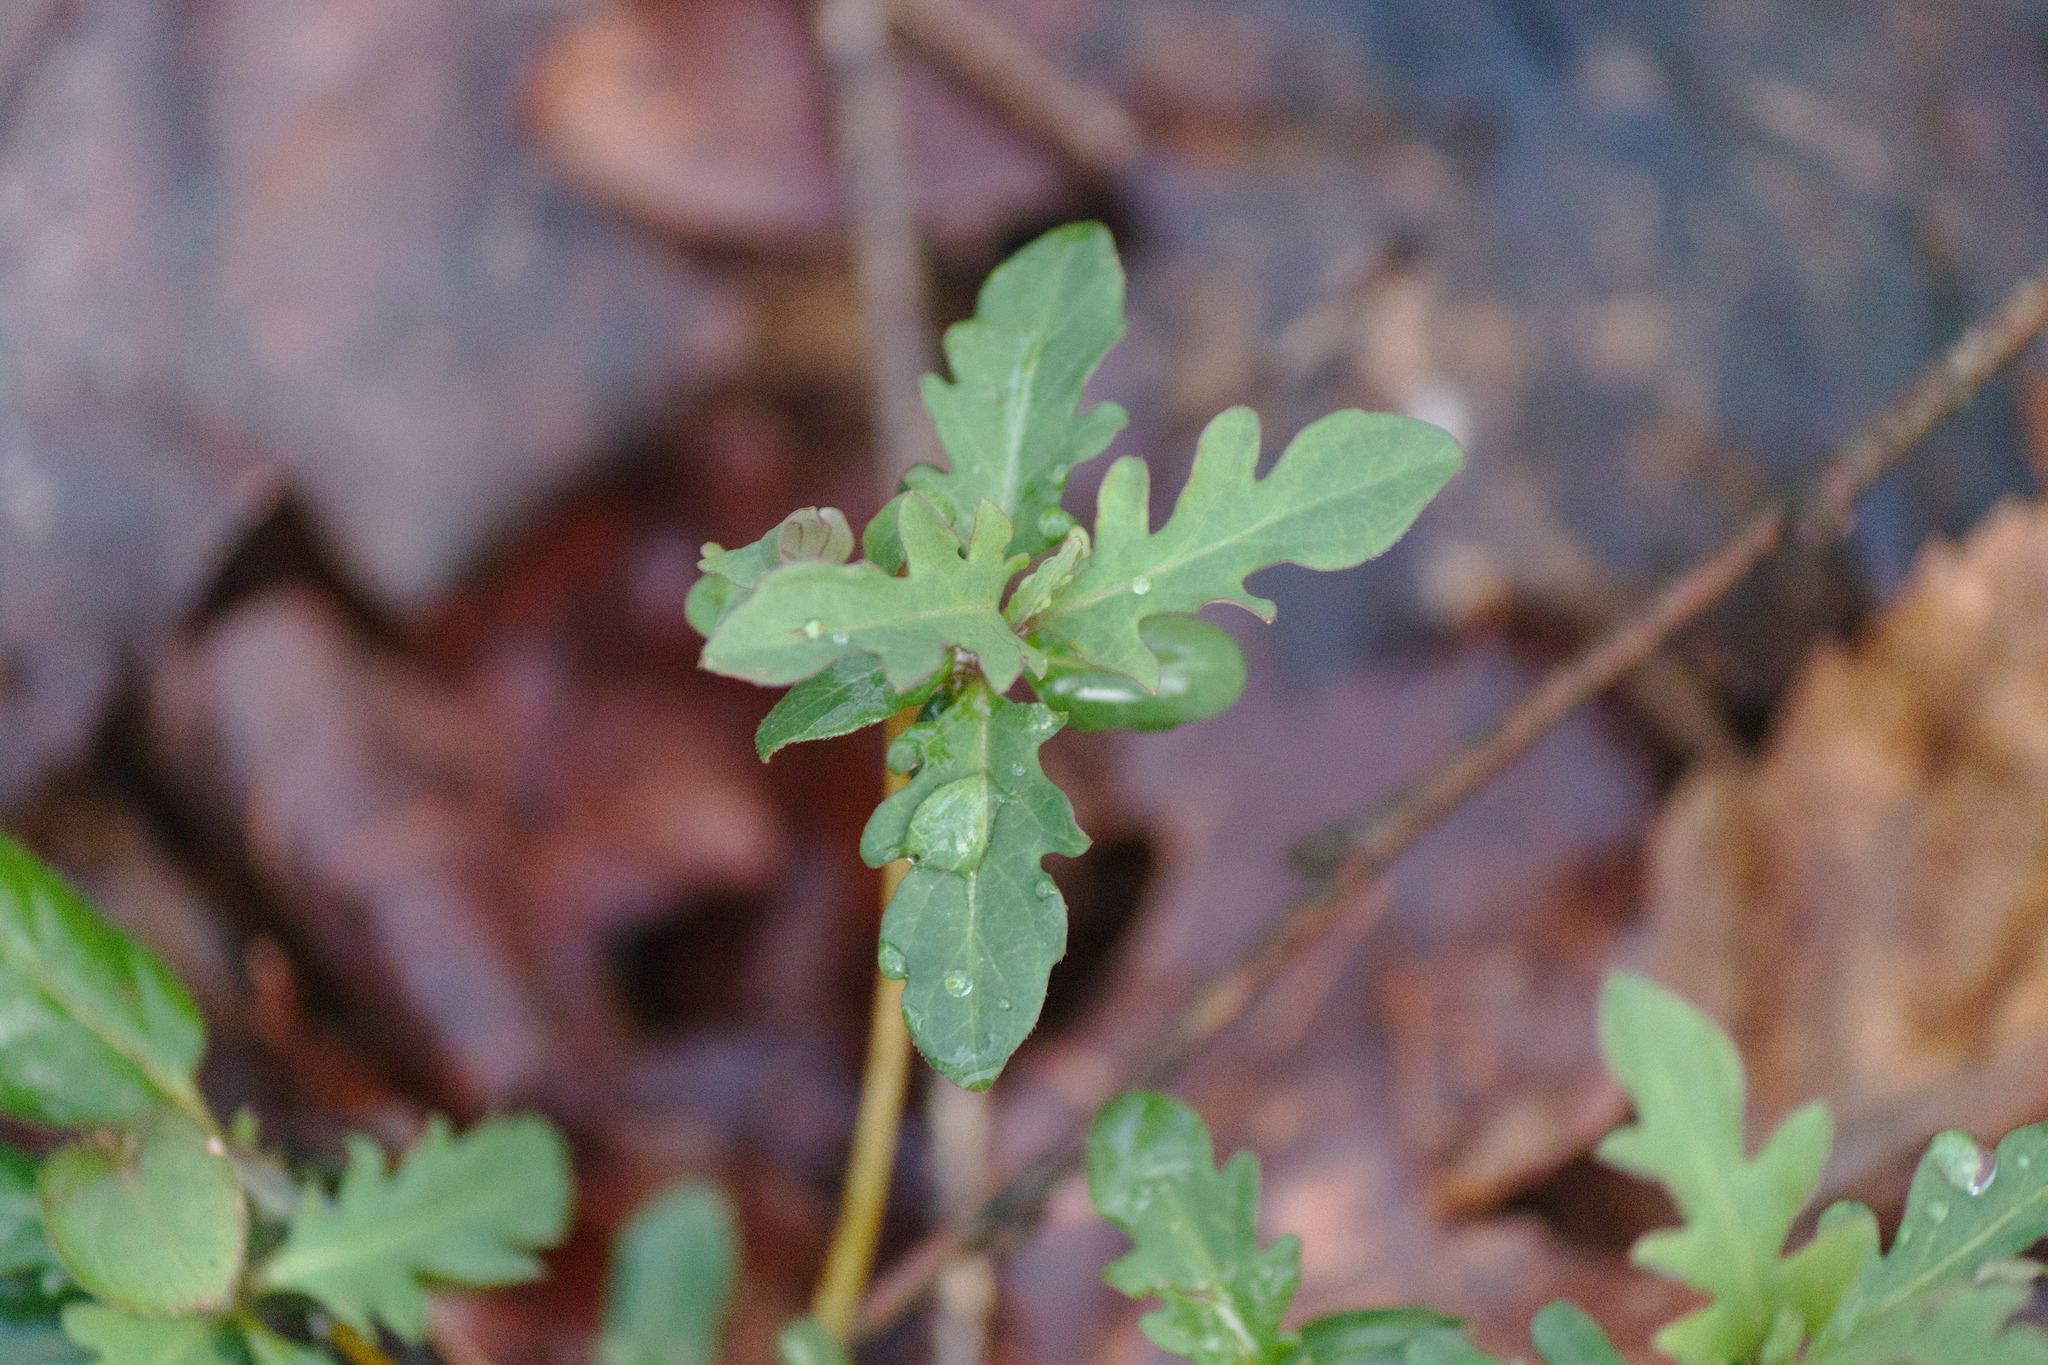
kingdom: Plantae
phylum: Tracheophyta
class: Magnoliopsida
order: Dipsacales
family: Caprifoliaceae
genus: Lonicera
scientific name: Lonicera japonica
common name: Japanese honeysuckle
